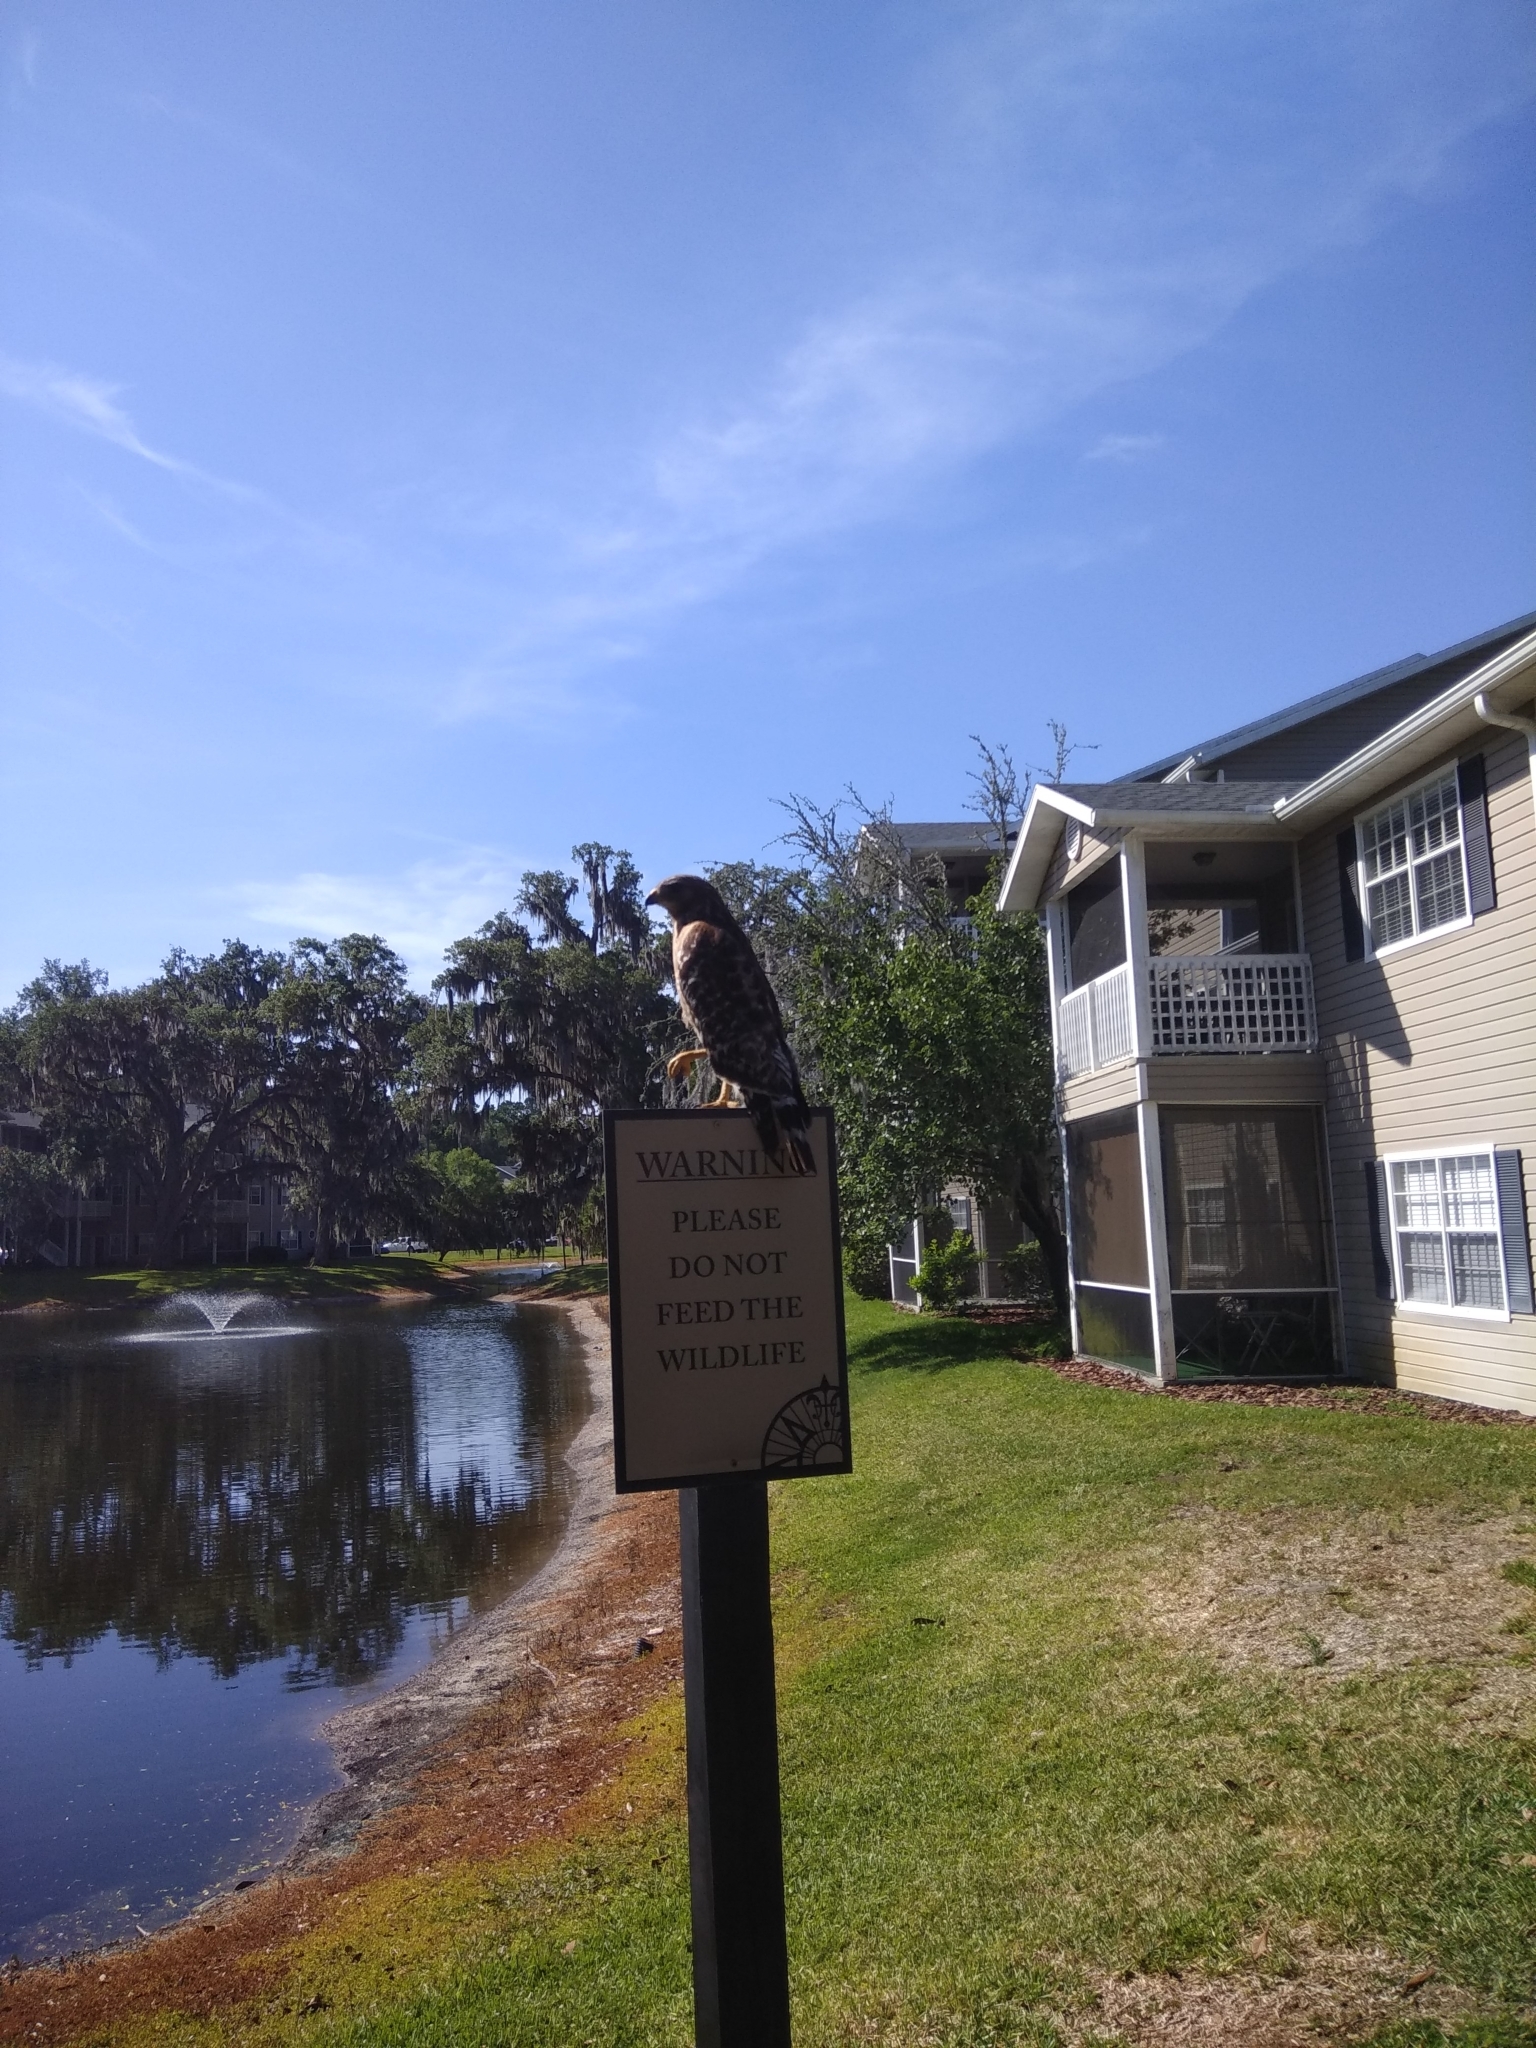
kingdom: Animalia
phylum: Chordata
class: Aves
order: Accipitriformes
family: Accipitridae
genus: Buteo
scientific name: Buteo lineatus
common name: Red-shouldered hawk
